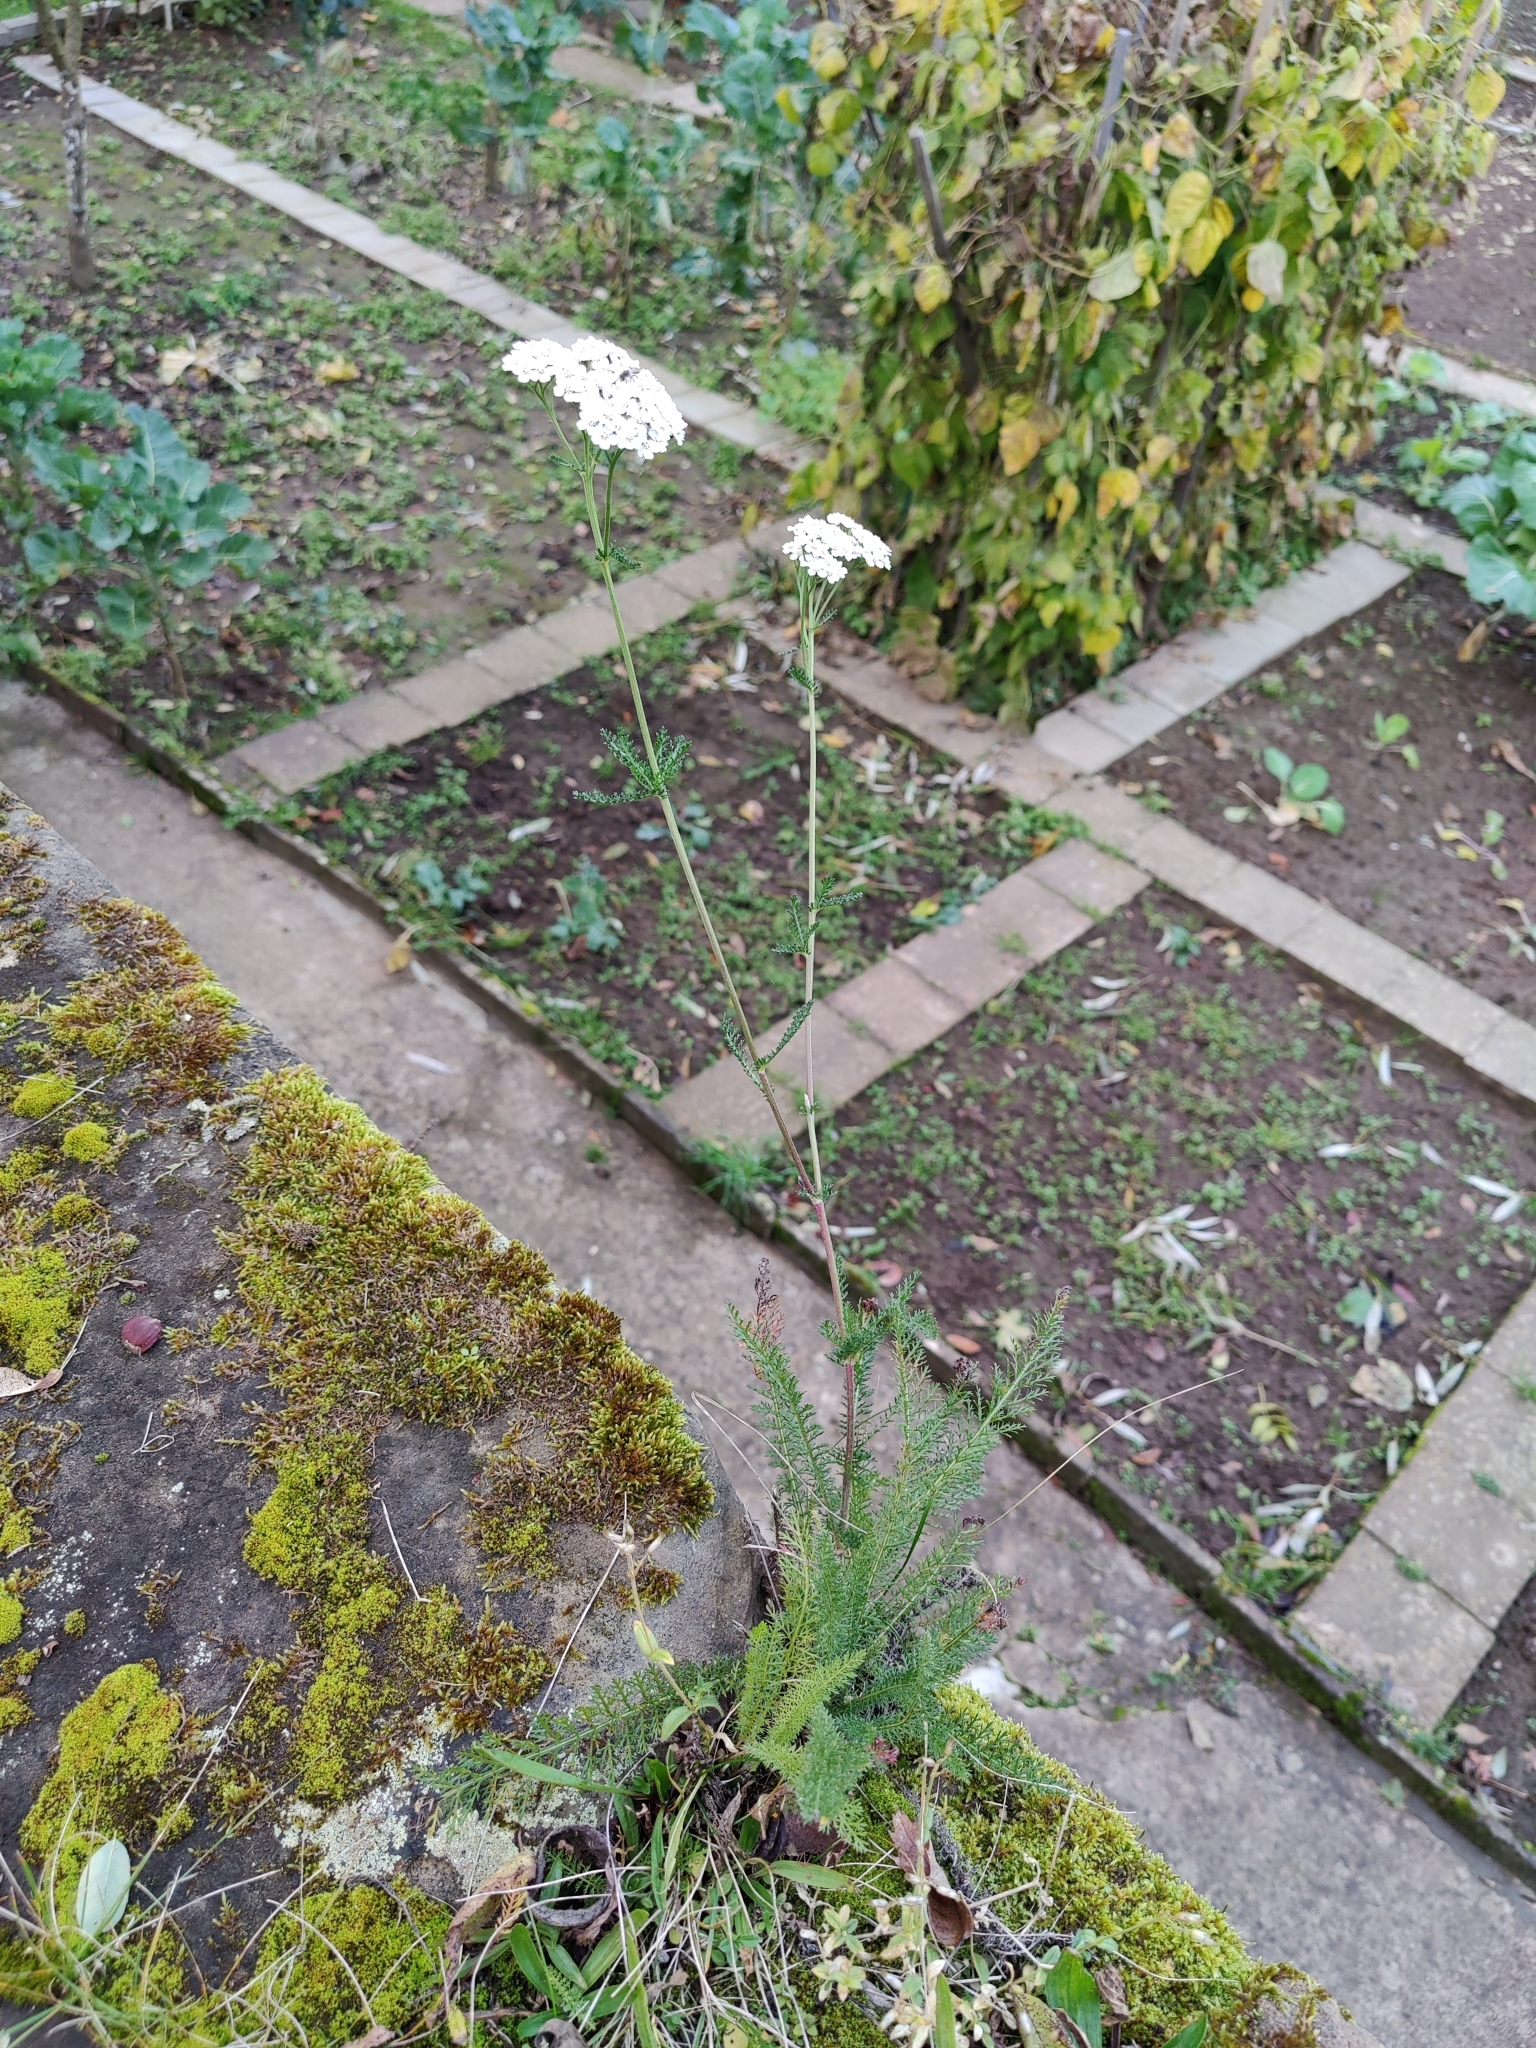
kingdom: Plantae
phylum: Tracheophyta
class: Magnoliopsida
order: Asterales
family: Asteraceae
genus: Achillea
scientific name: Achillea millefolium
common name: Yarrow
